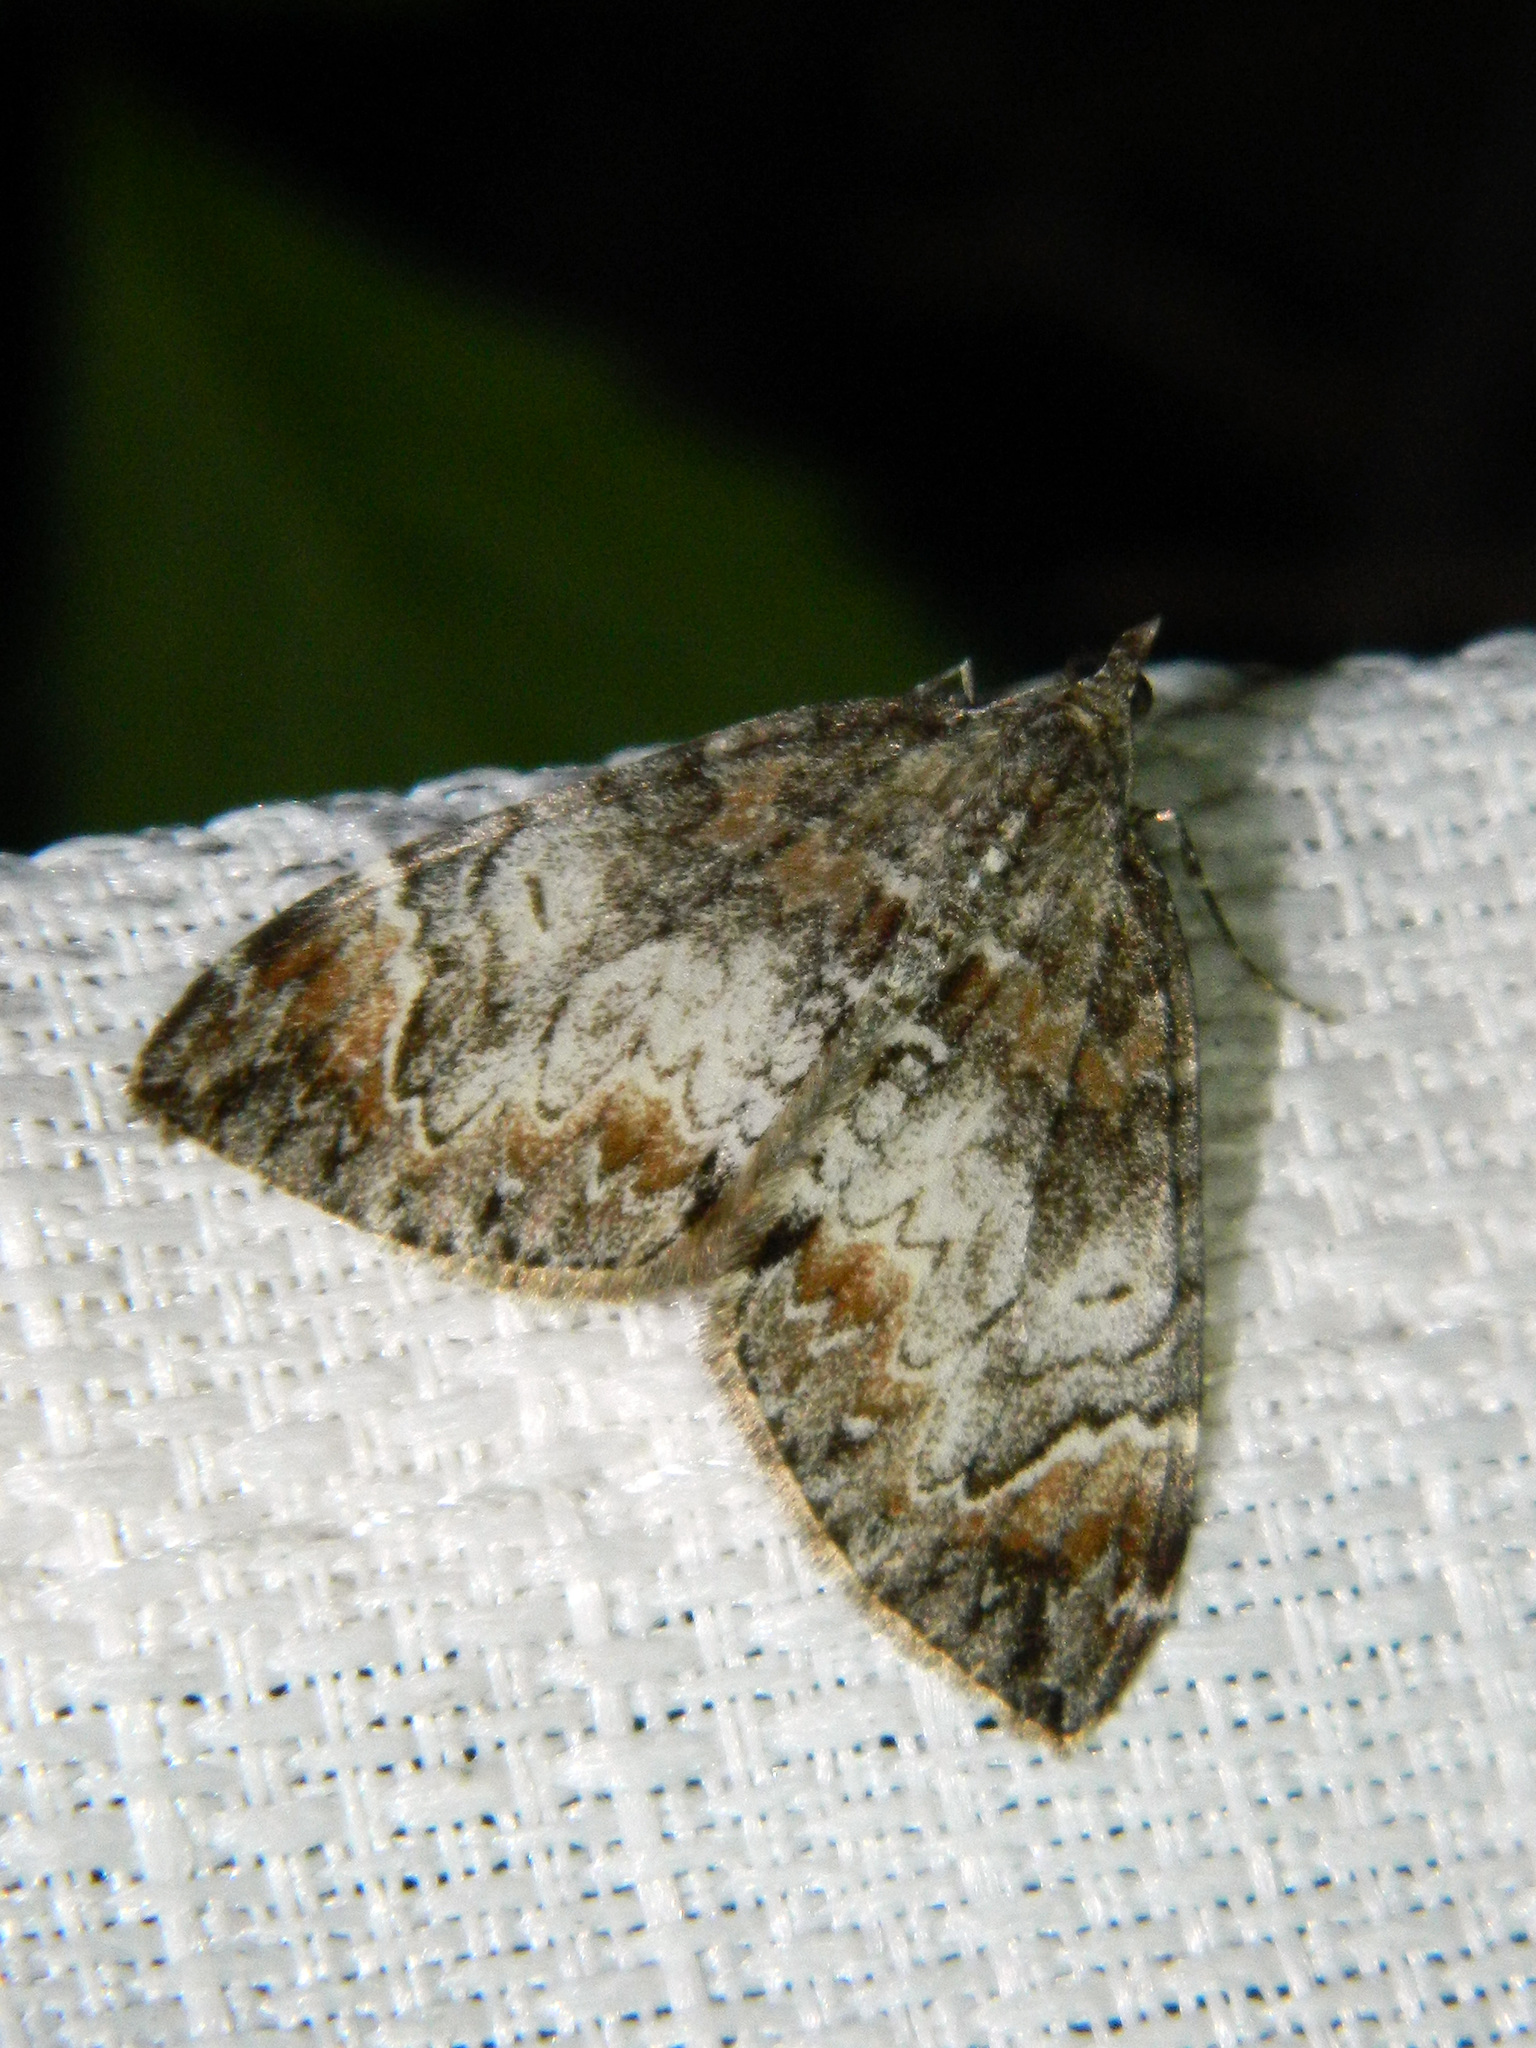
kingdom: Animalia
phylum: Arthropoda
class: Insecta
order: Lepidoptera
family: Geometridae
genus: Dysstroma
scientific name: Dysstroma citrata
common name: Dark marbled carpet
